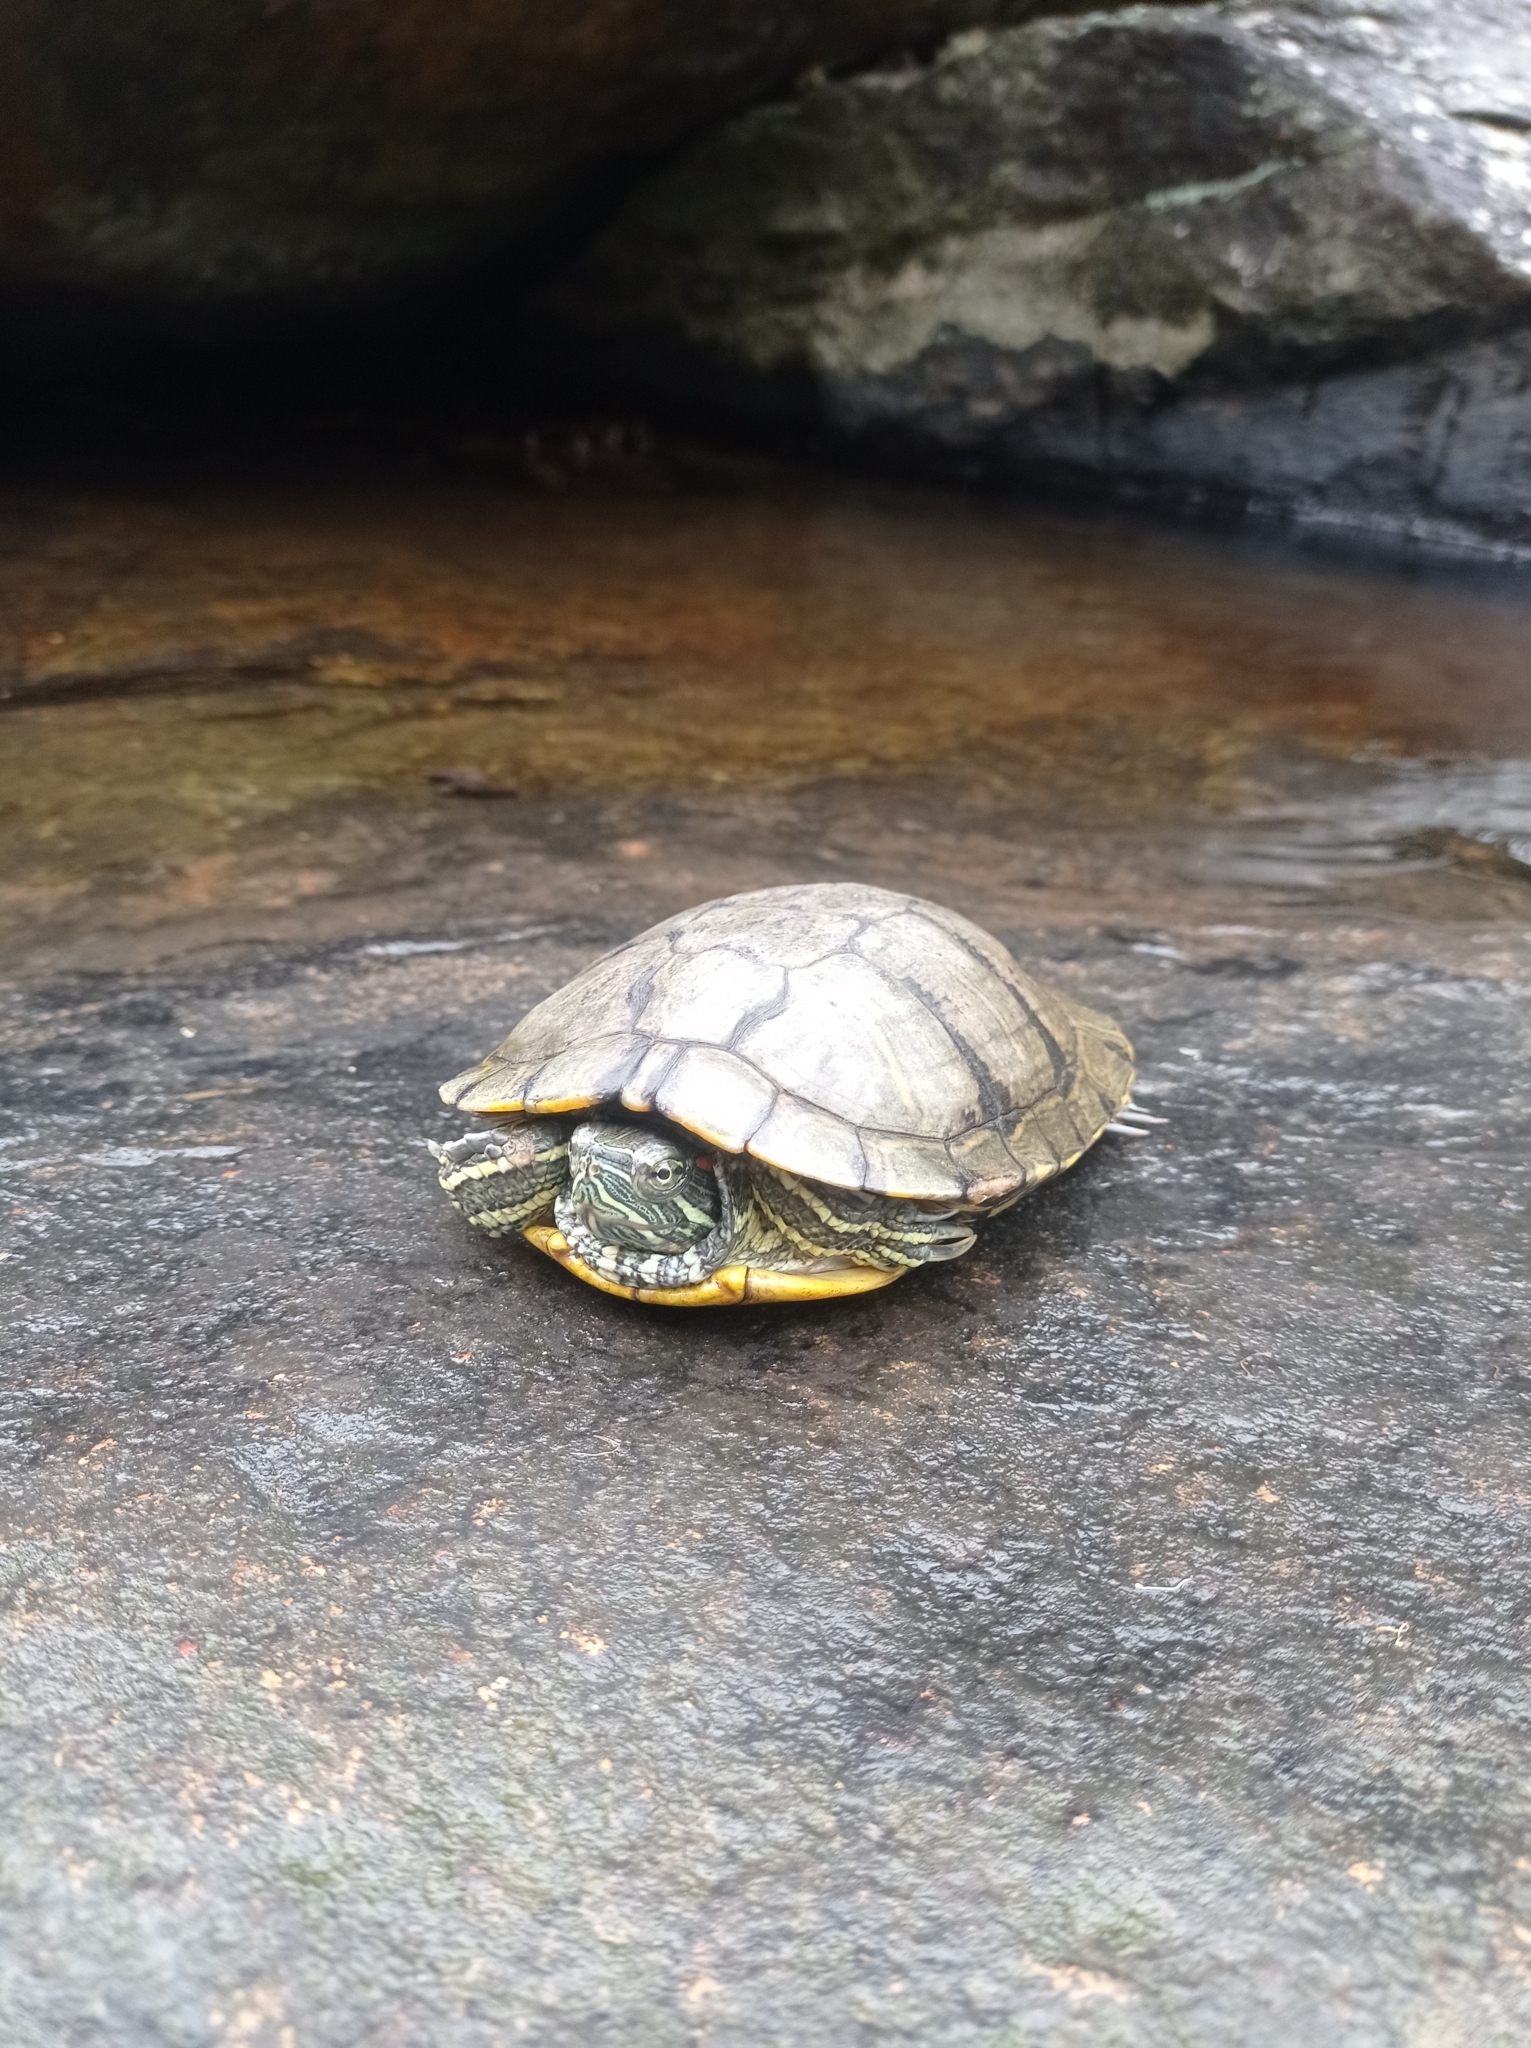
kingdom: Animalia
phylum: Chordata
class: Testudines
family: Emydidae
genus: Trachemys
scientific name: Trachemys scripta
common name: Slider
